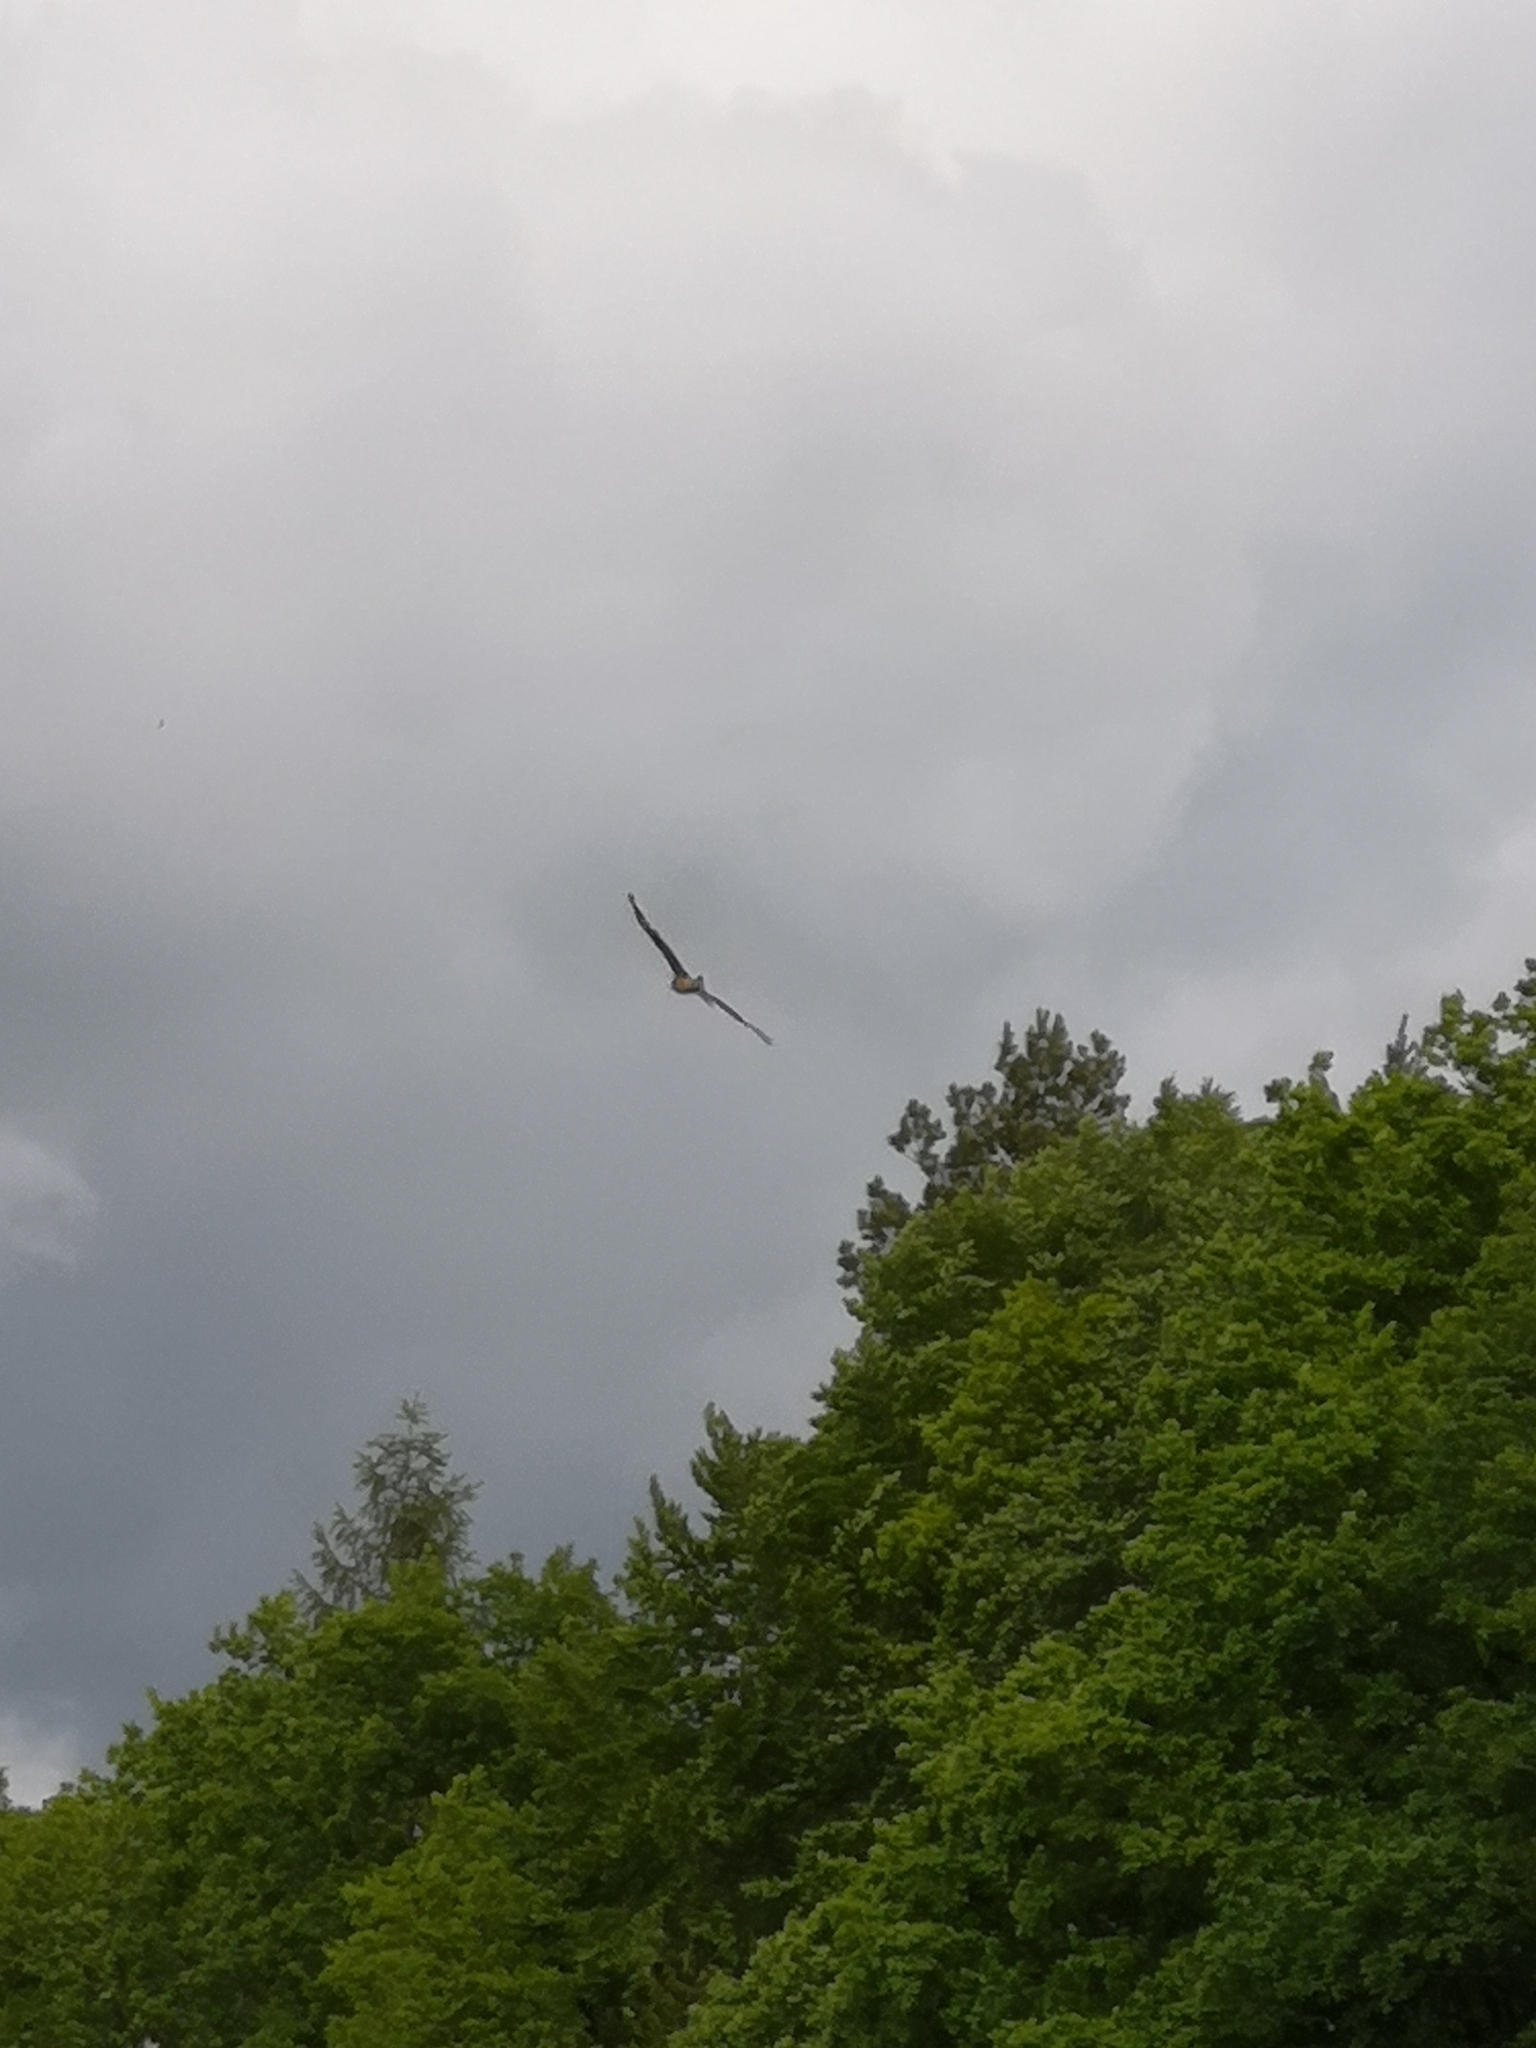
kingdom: Animalia
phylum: Chordata
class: Aves
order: Accipitriformes
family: Accipitridae
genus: Milvus
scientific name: Milvus milvus
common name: Red kite
